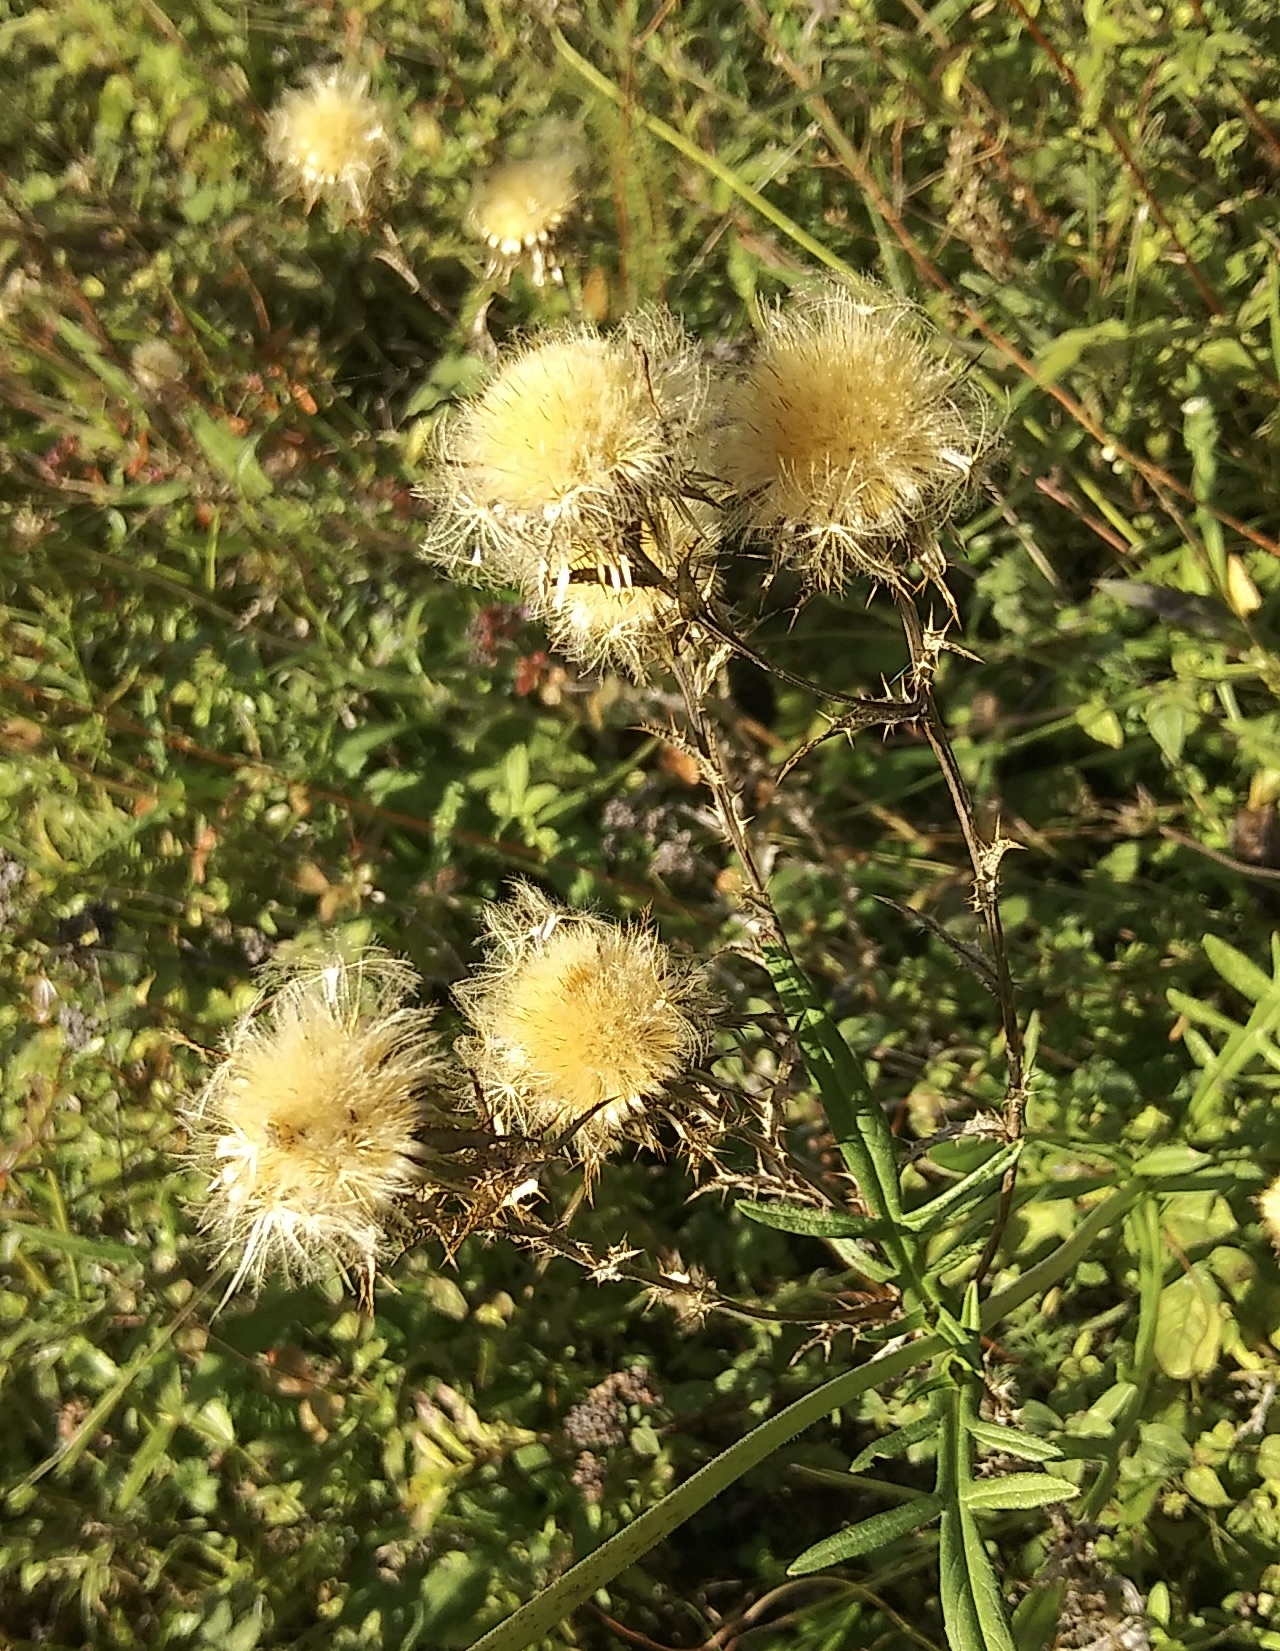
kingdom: Plantae
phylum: Tracheophyta
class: Magnoliopsida
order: Asterales
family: Asteraceae
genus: Carlina
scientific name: Carlina vulgaris
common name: Carline thistle
